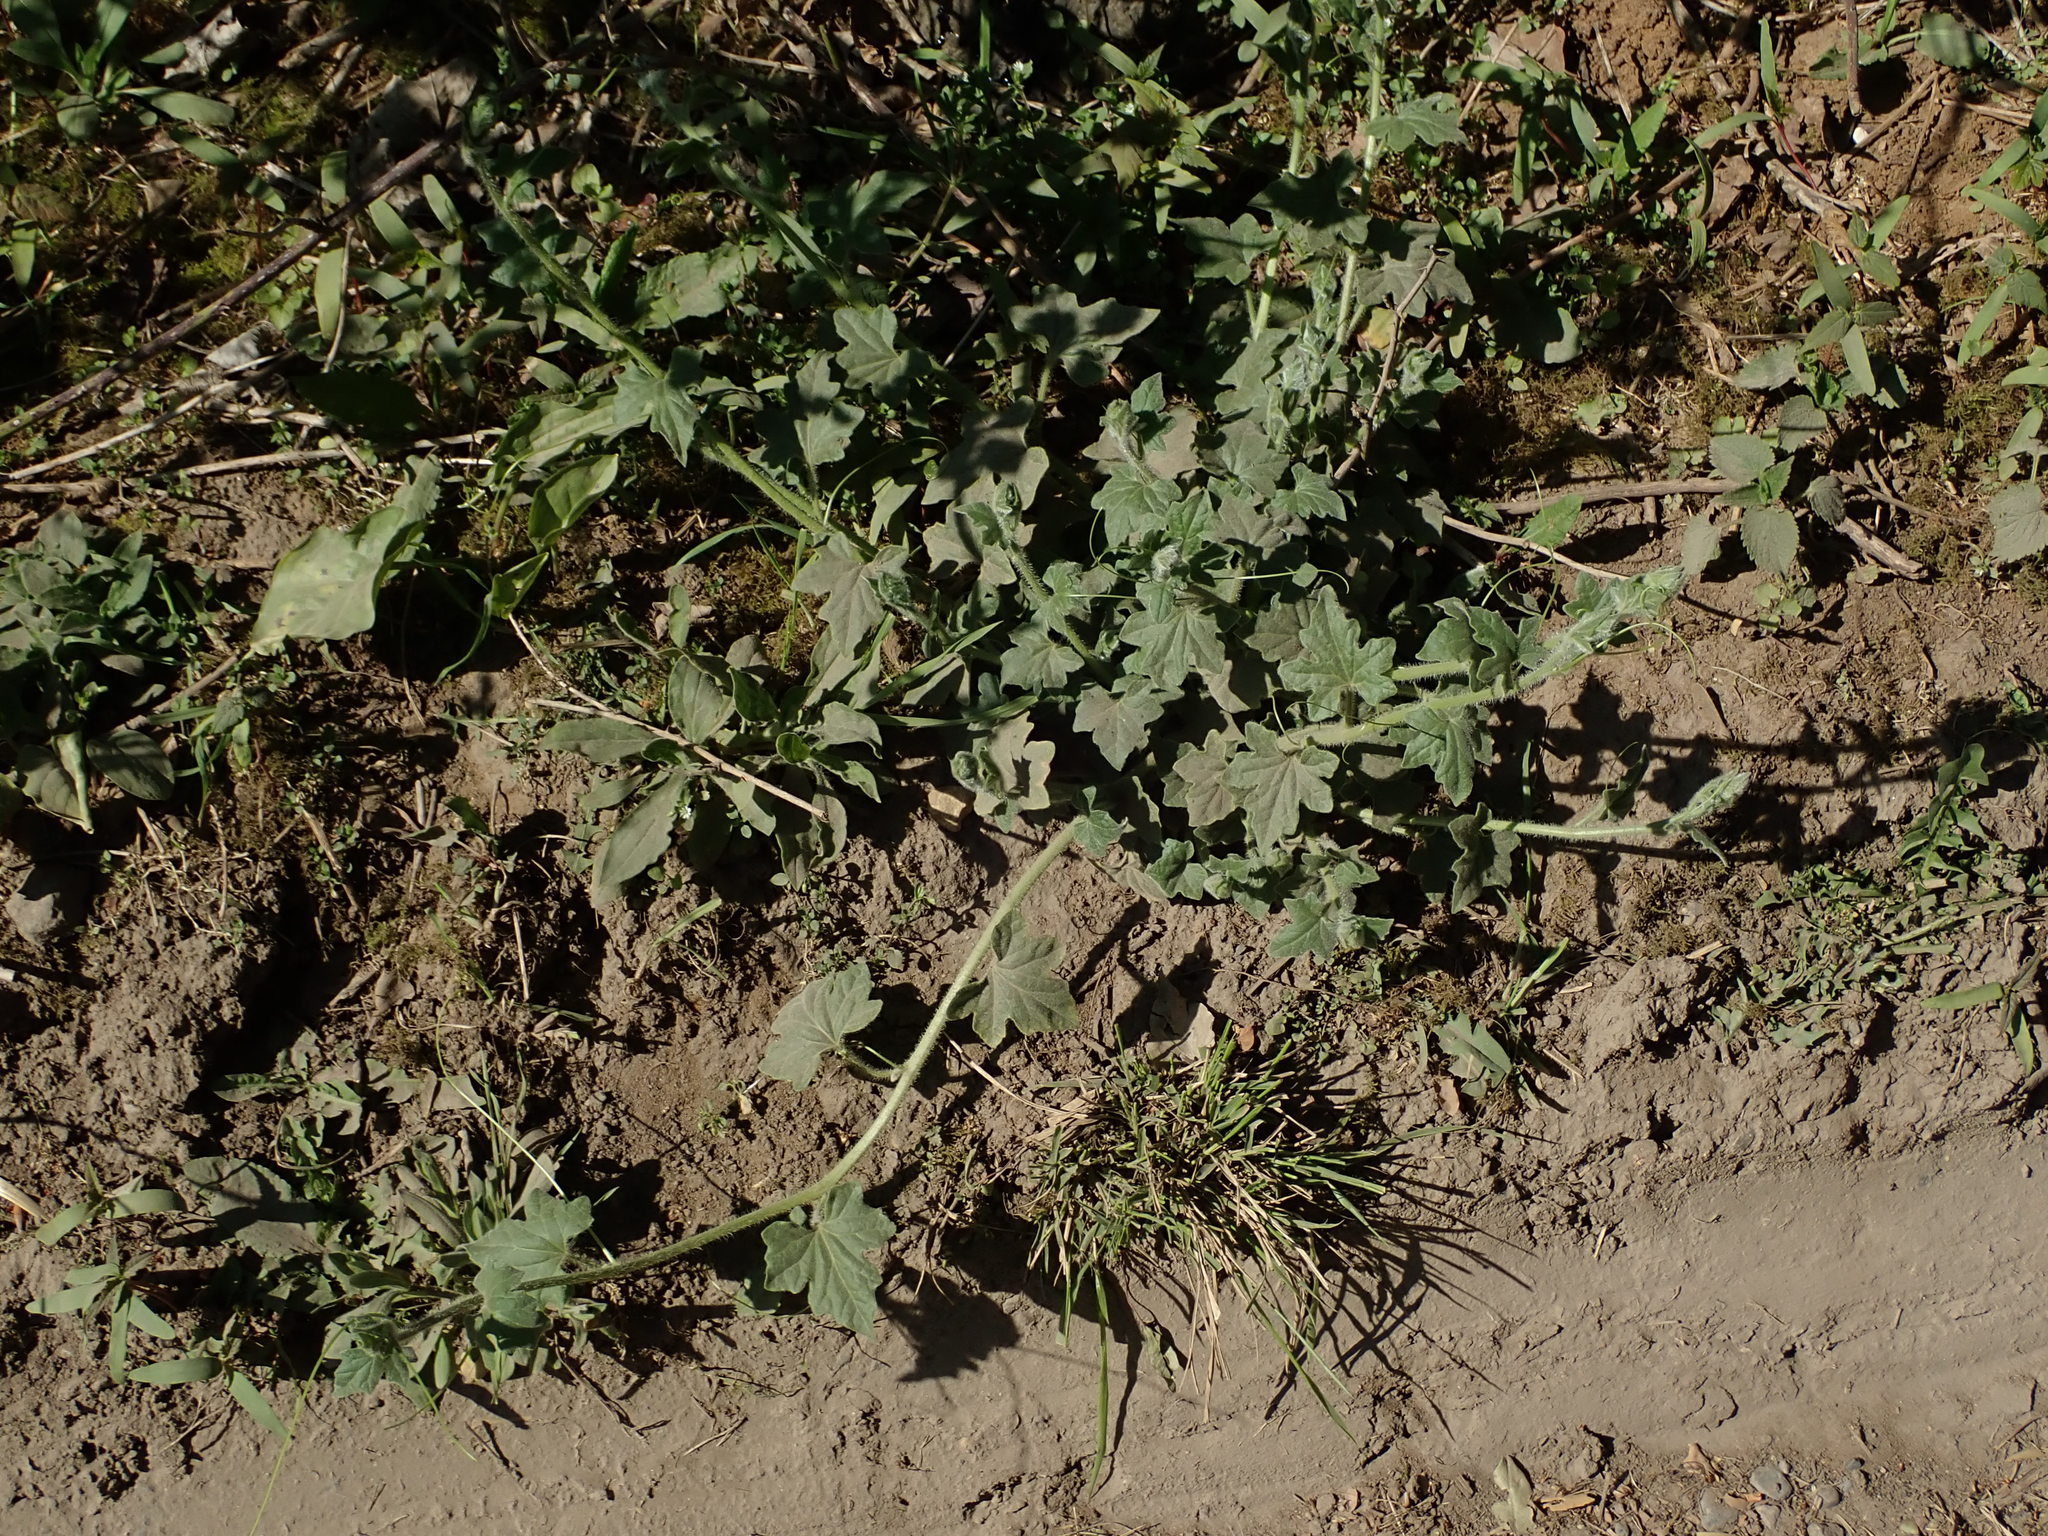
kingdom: Plantae
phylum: Tracheophyta
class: Magnoliopsida
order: Cucurbitales
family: Cucurbitaceae
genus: Bryonia
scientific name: Bryonia cretica
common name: Cretan bryony
